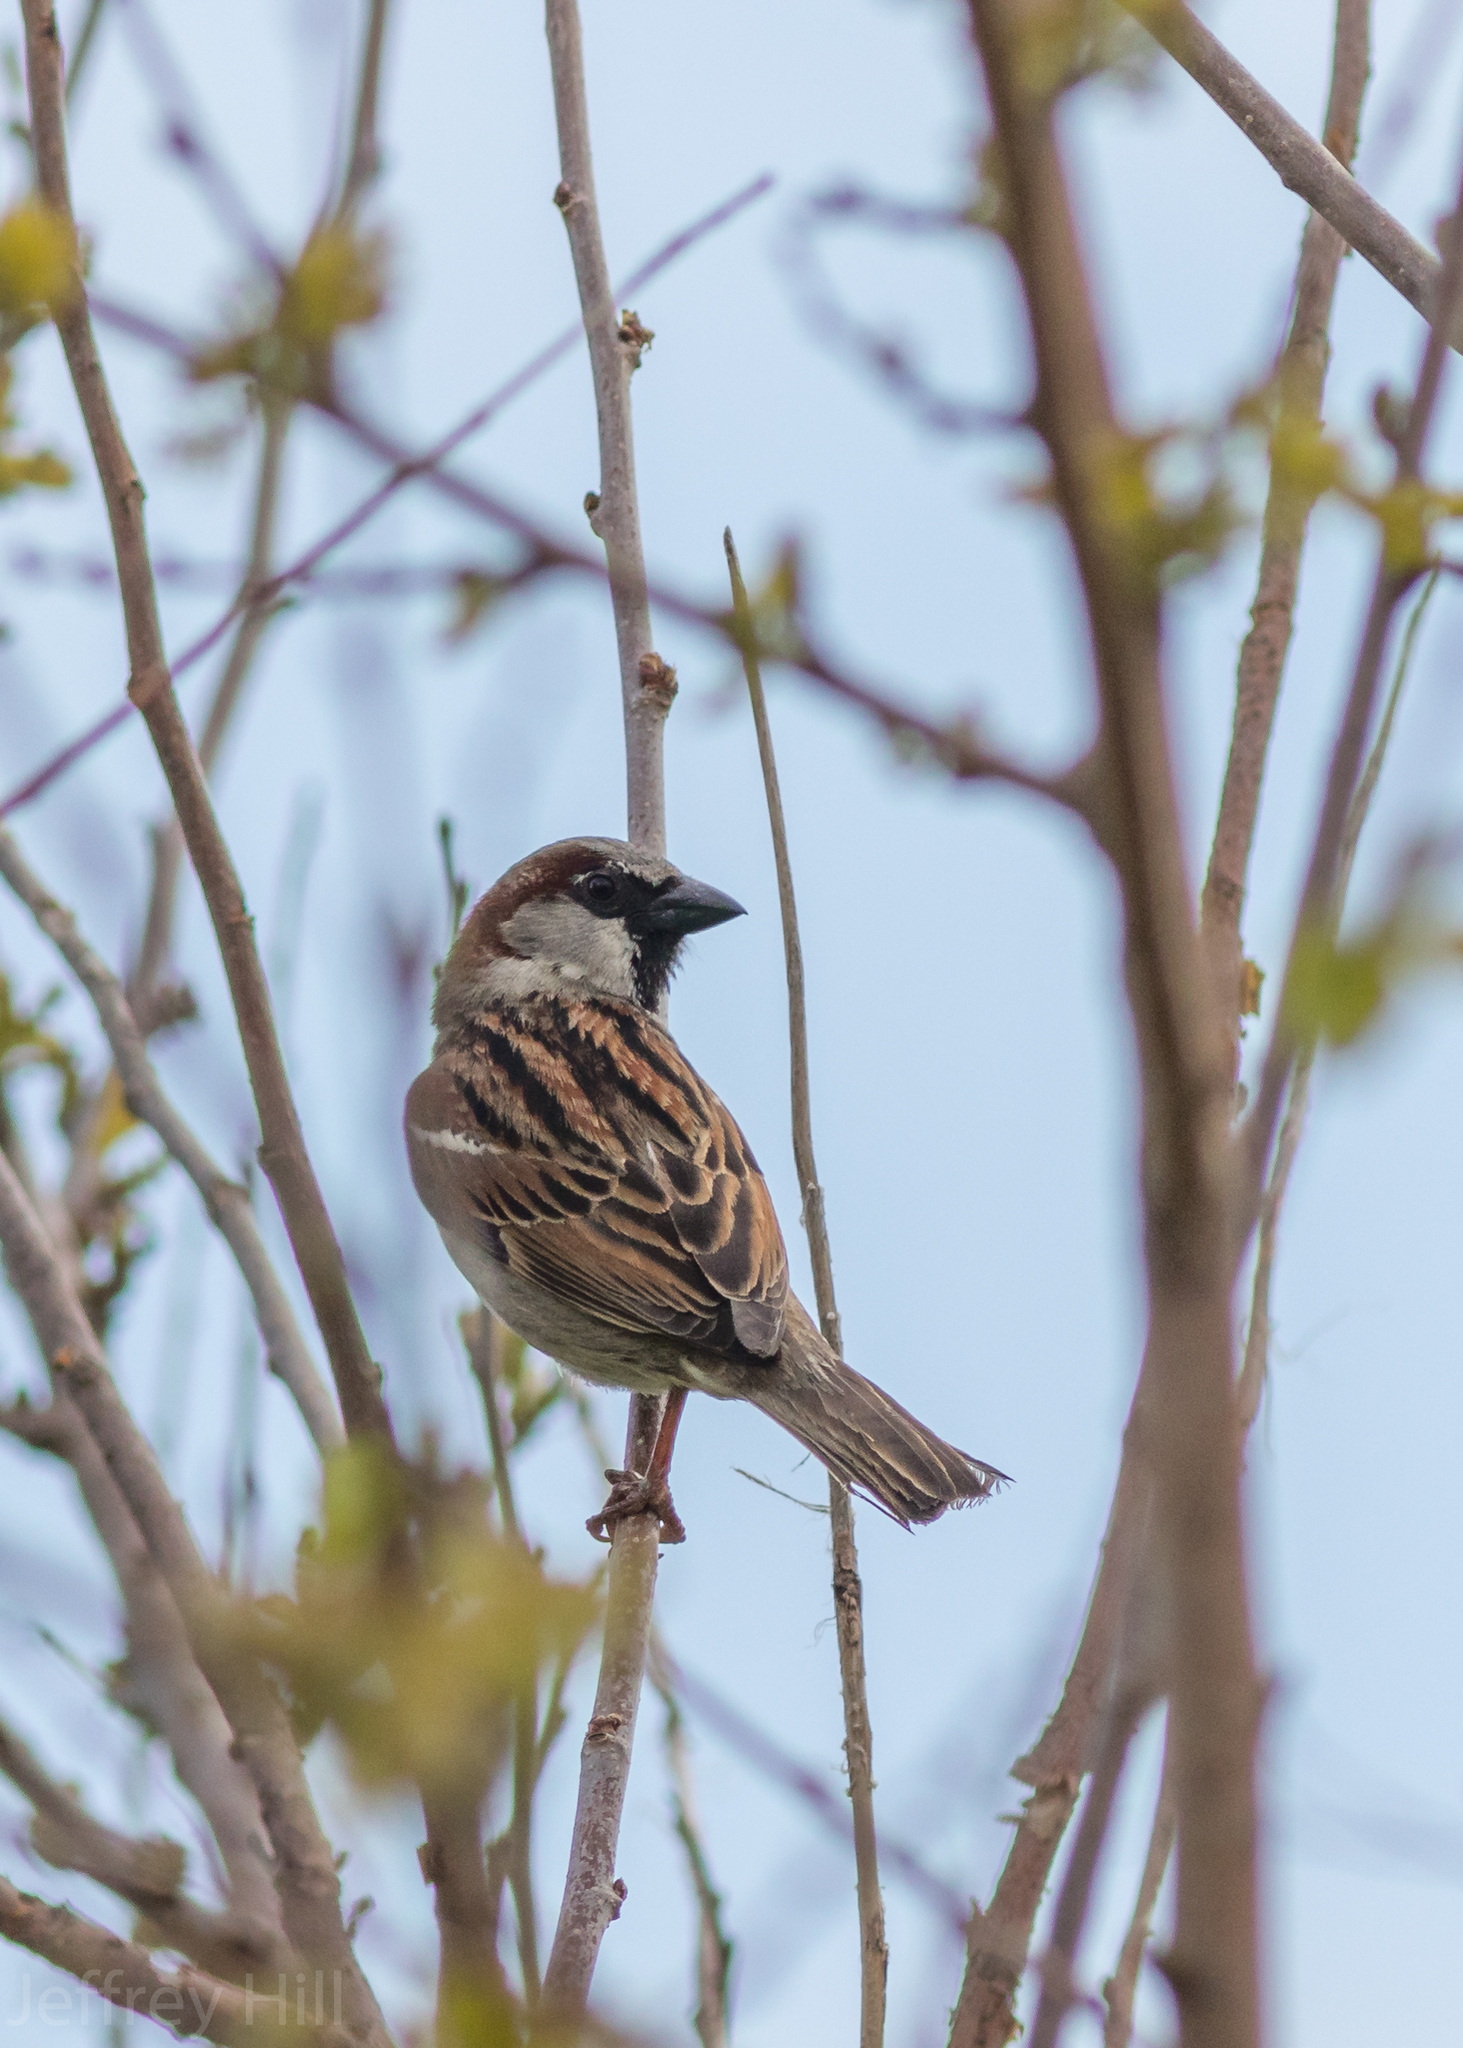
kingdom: Animalia
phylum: Chordata
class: Aves
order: Passeriformes
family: Passeridae
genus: Passer
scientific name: Passer domesticus
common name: House sparrow
